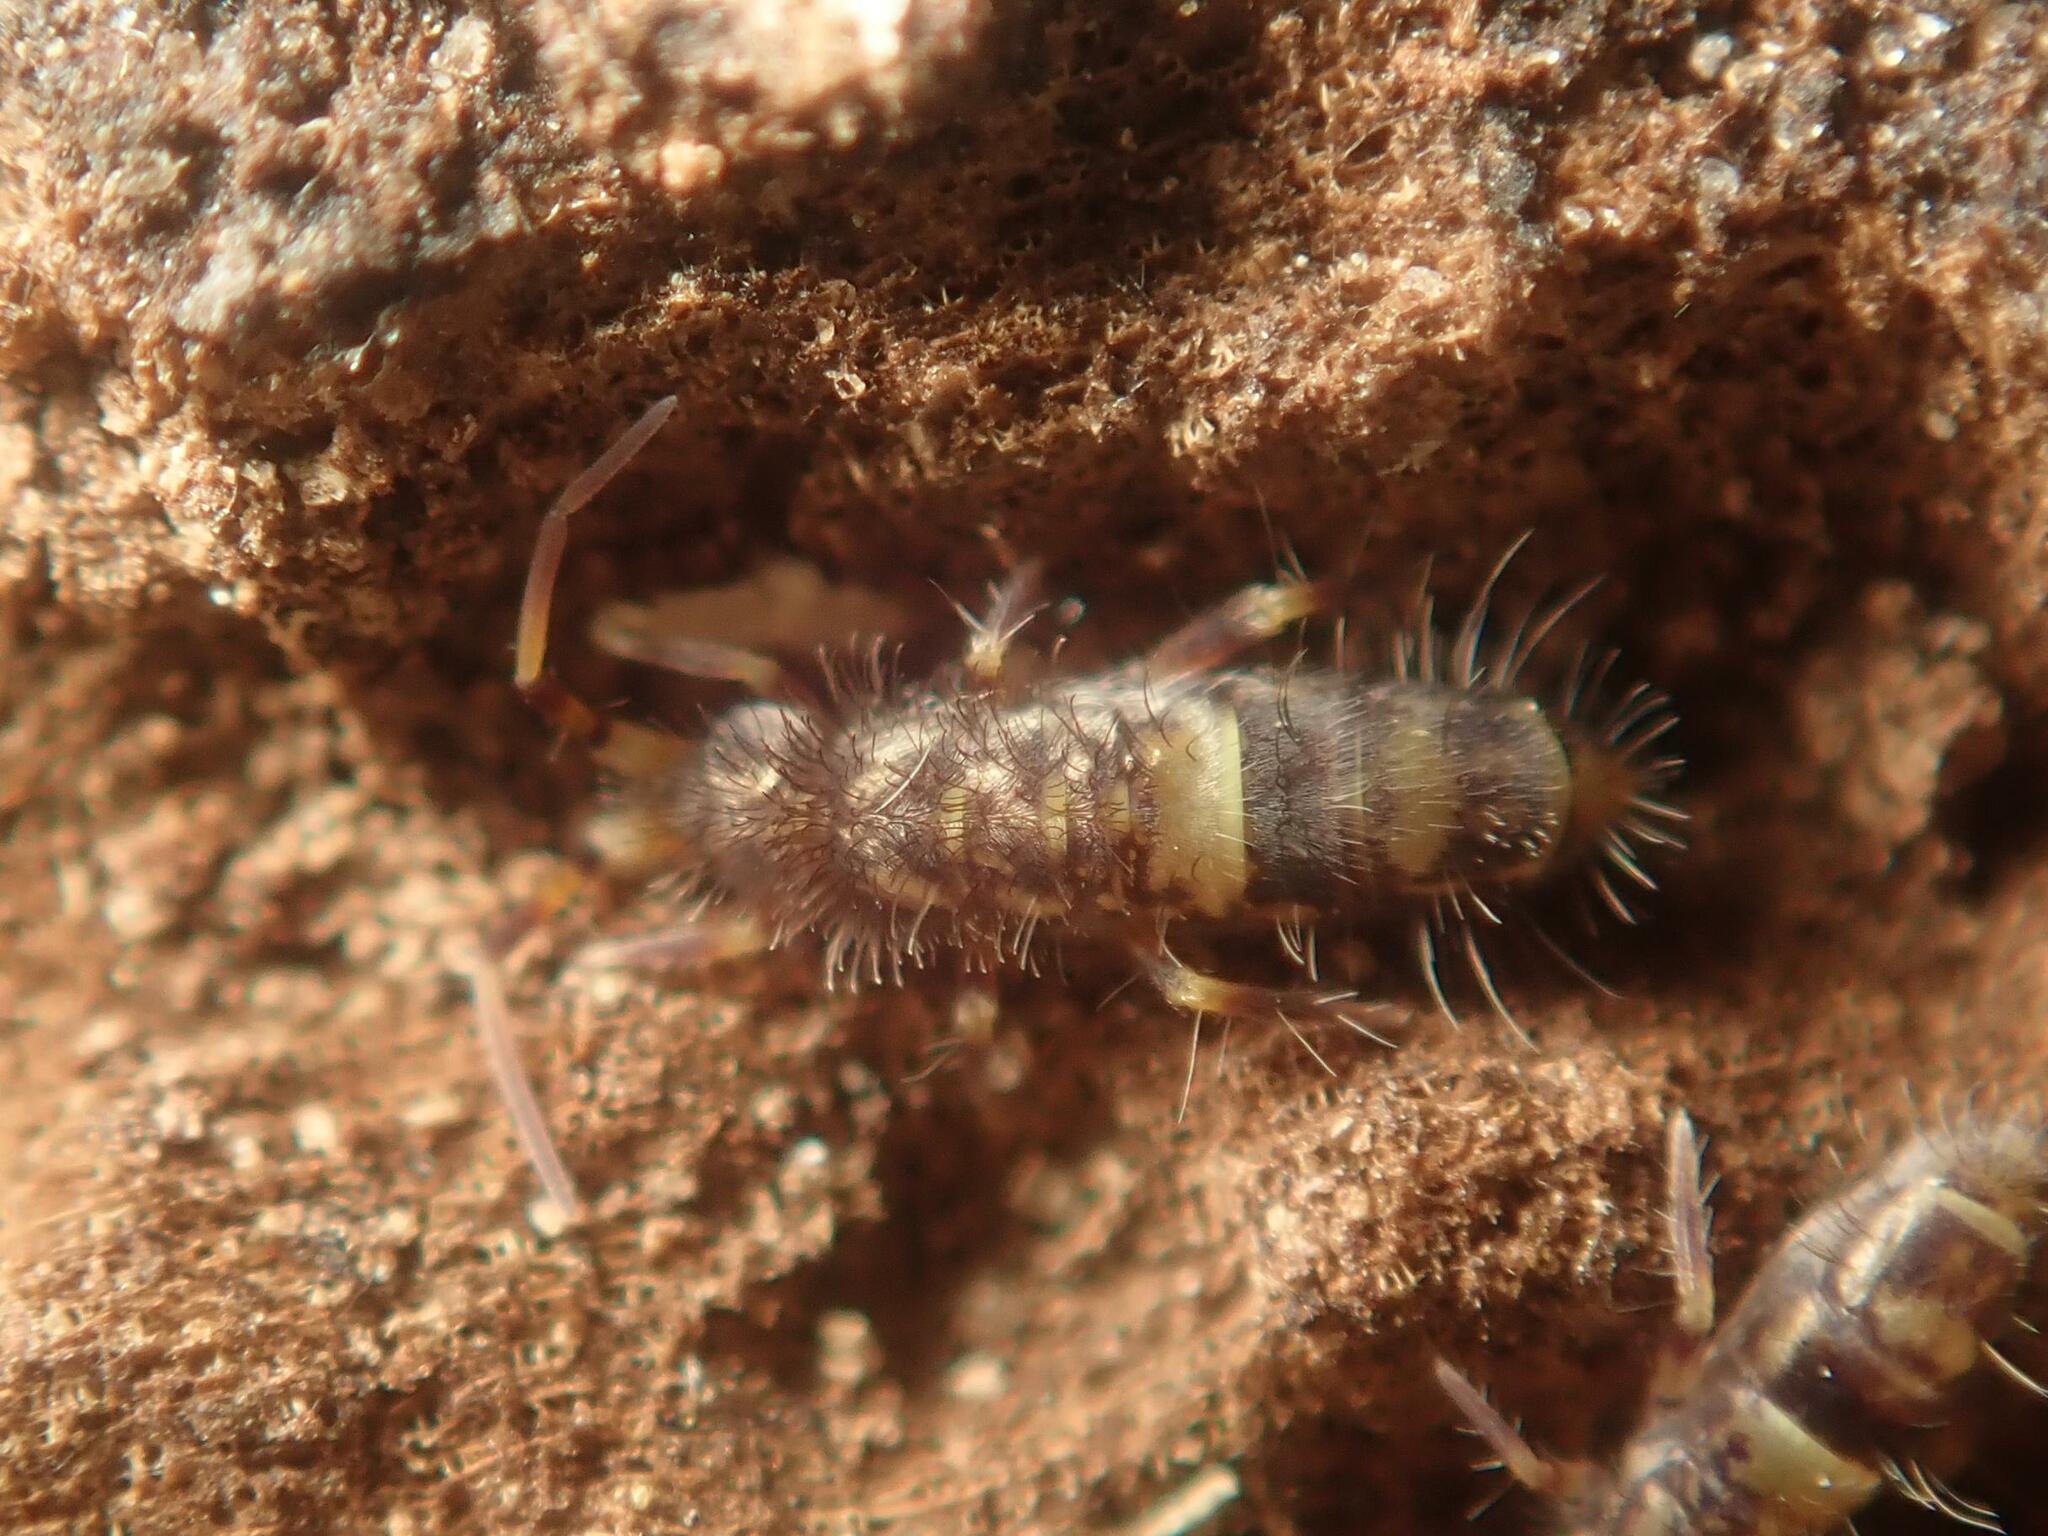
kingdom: Animalia
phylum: Arthropoda
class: Collembola
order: Entomobryomorpha
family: Orchesellidae
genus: Orchesella
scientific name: Orchesella cincta
